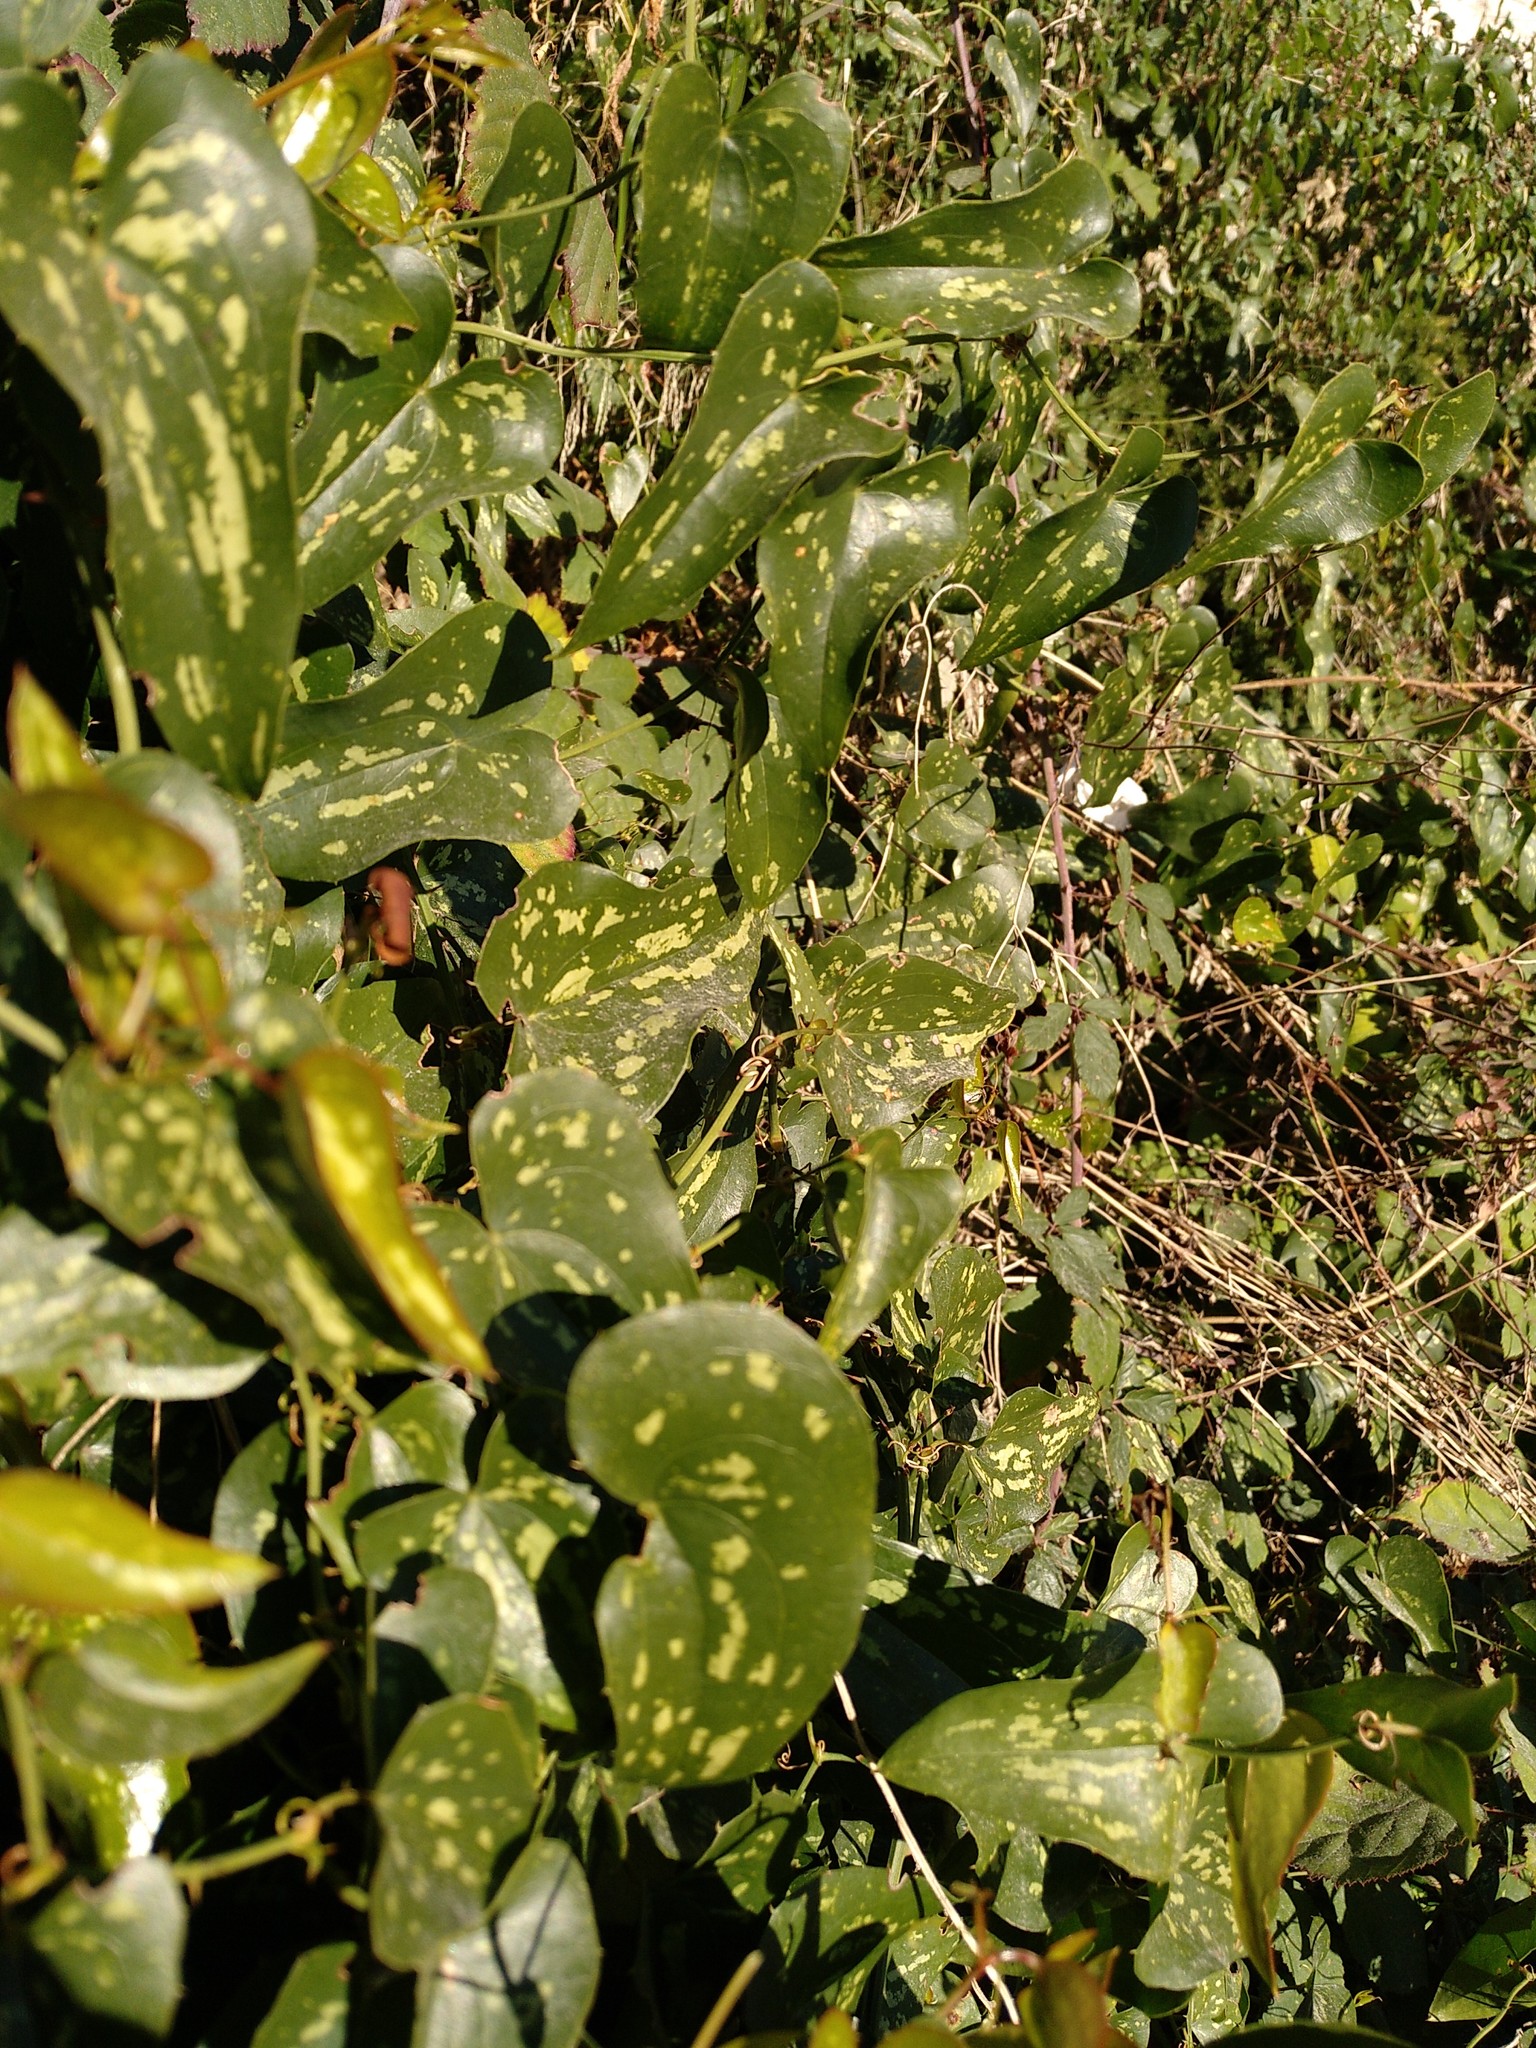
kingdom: Plantae
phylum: Tracheophyta
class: Liliopsida
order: Liliales
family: Smilacaceae
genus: Smilax
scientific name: Smilax aspera
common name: Common smilax
